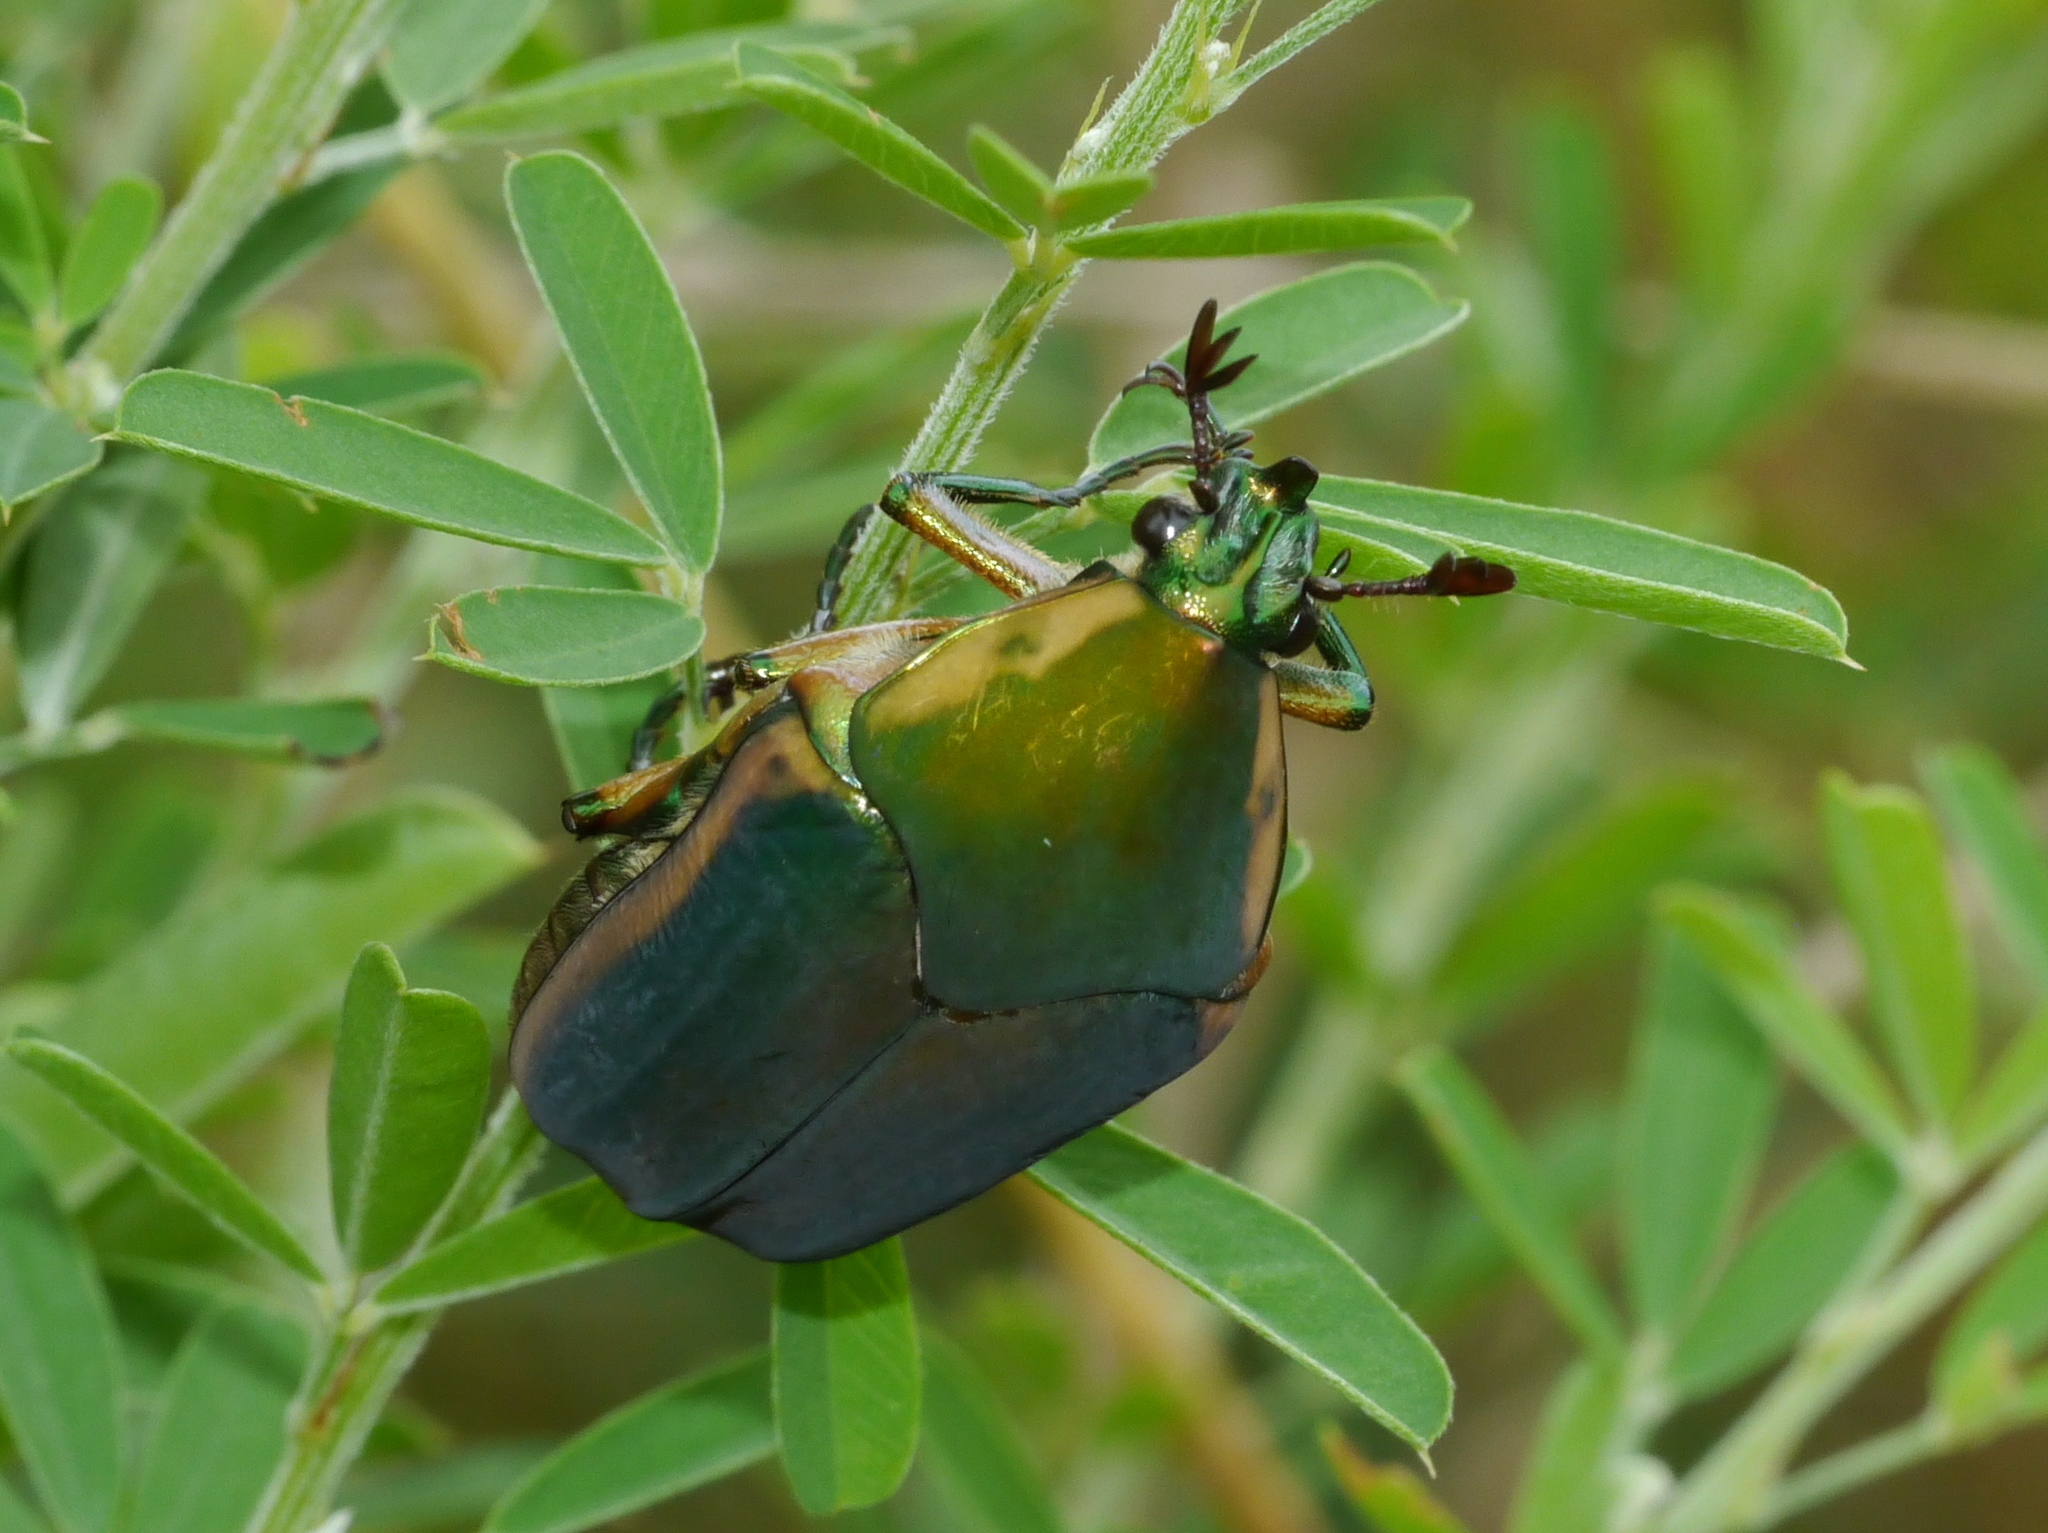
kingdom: Animalia
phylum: Arthropoda
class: Insecta
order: Coleoptera
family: Scarabaeidae
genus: Cotinis
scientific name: Cotinis nitida
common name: Common green june beetle
